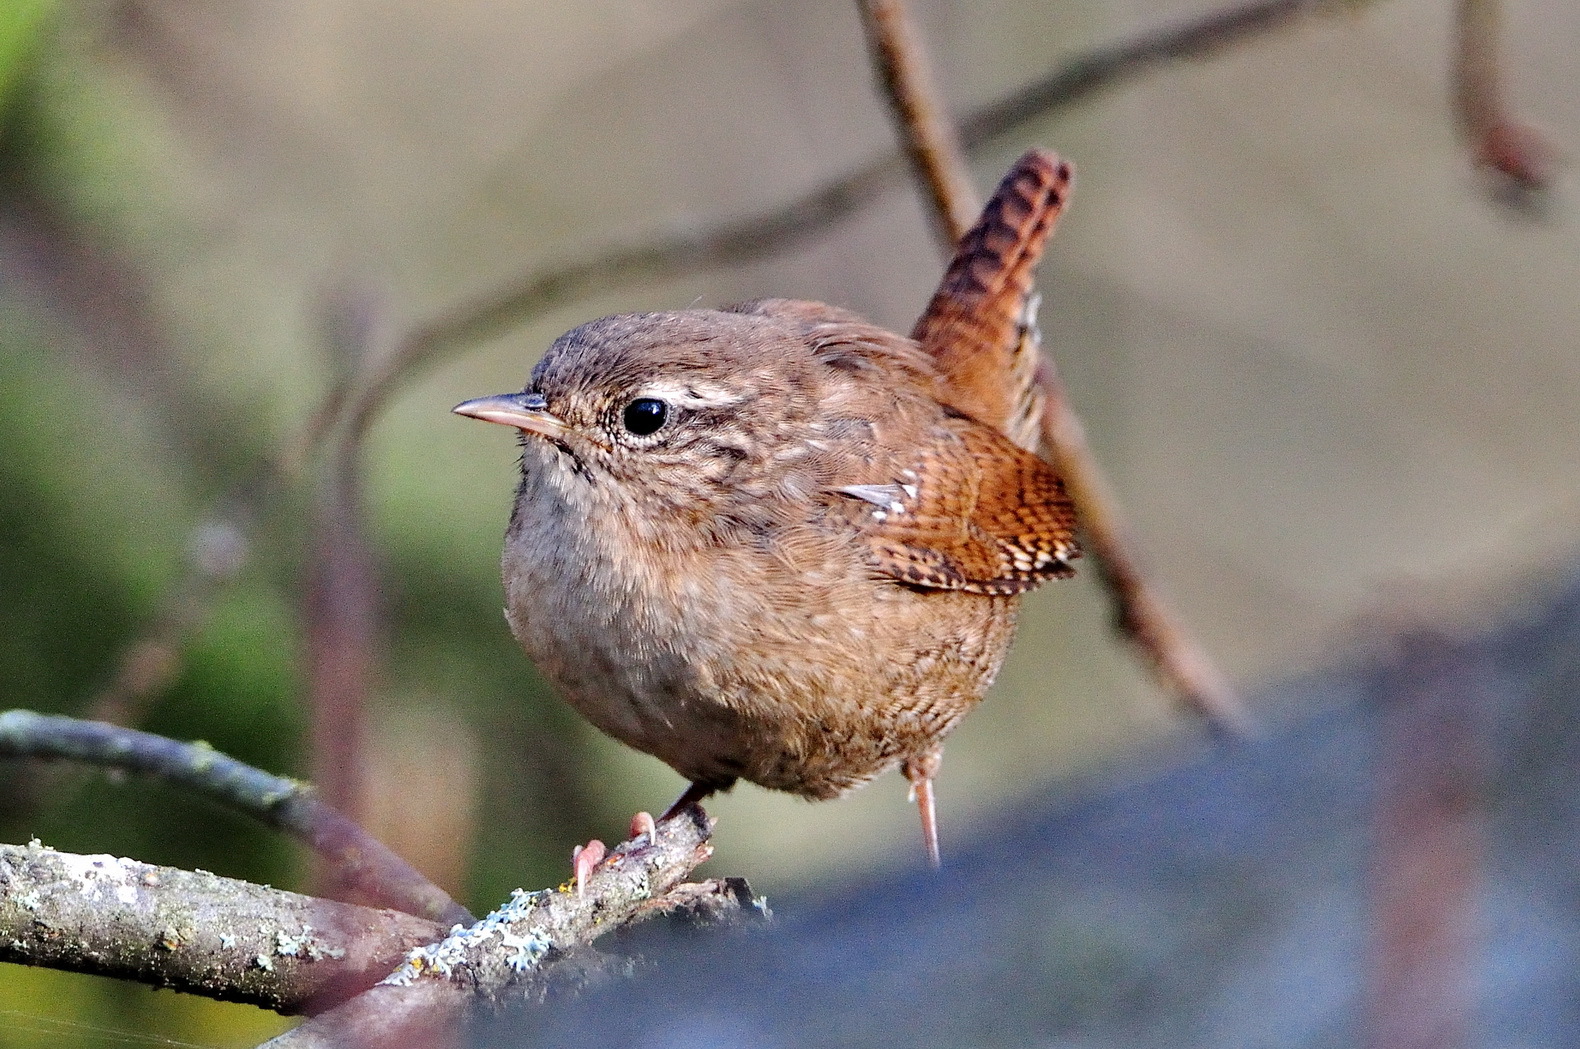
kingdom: Animalia
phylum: Chordata
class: Aves
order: Passeriformes
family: Troglodytidae
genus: Troglodytes
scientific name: Troglodytes troglodytes
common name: Eurasian wren
